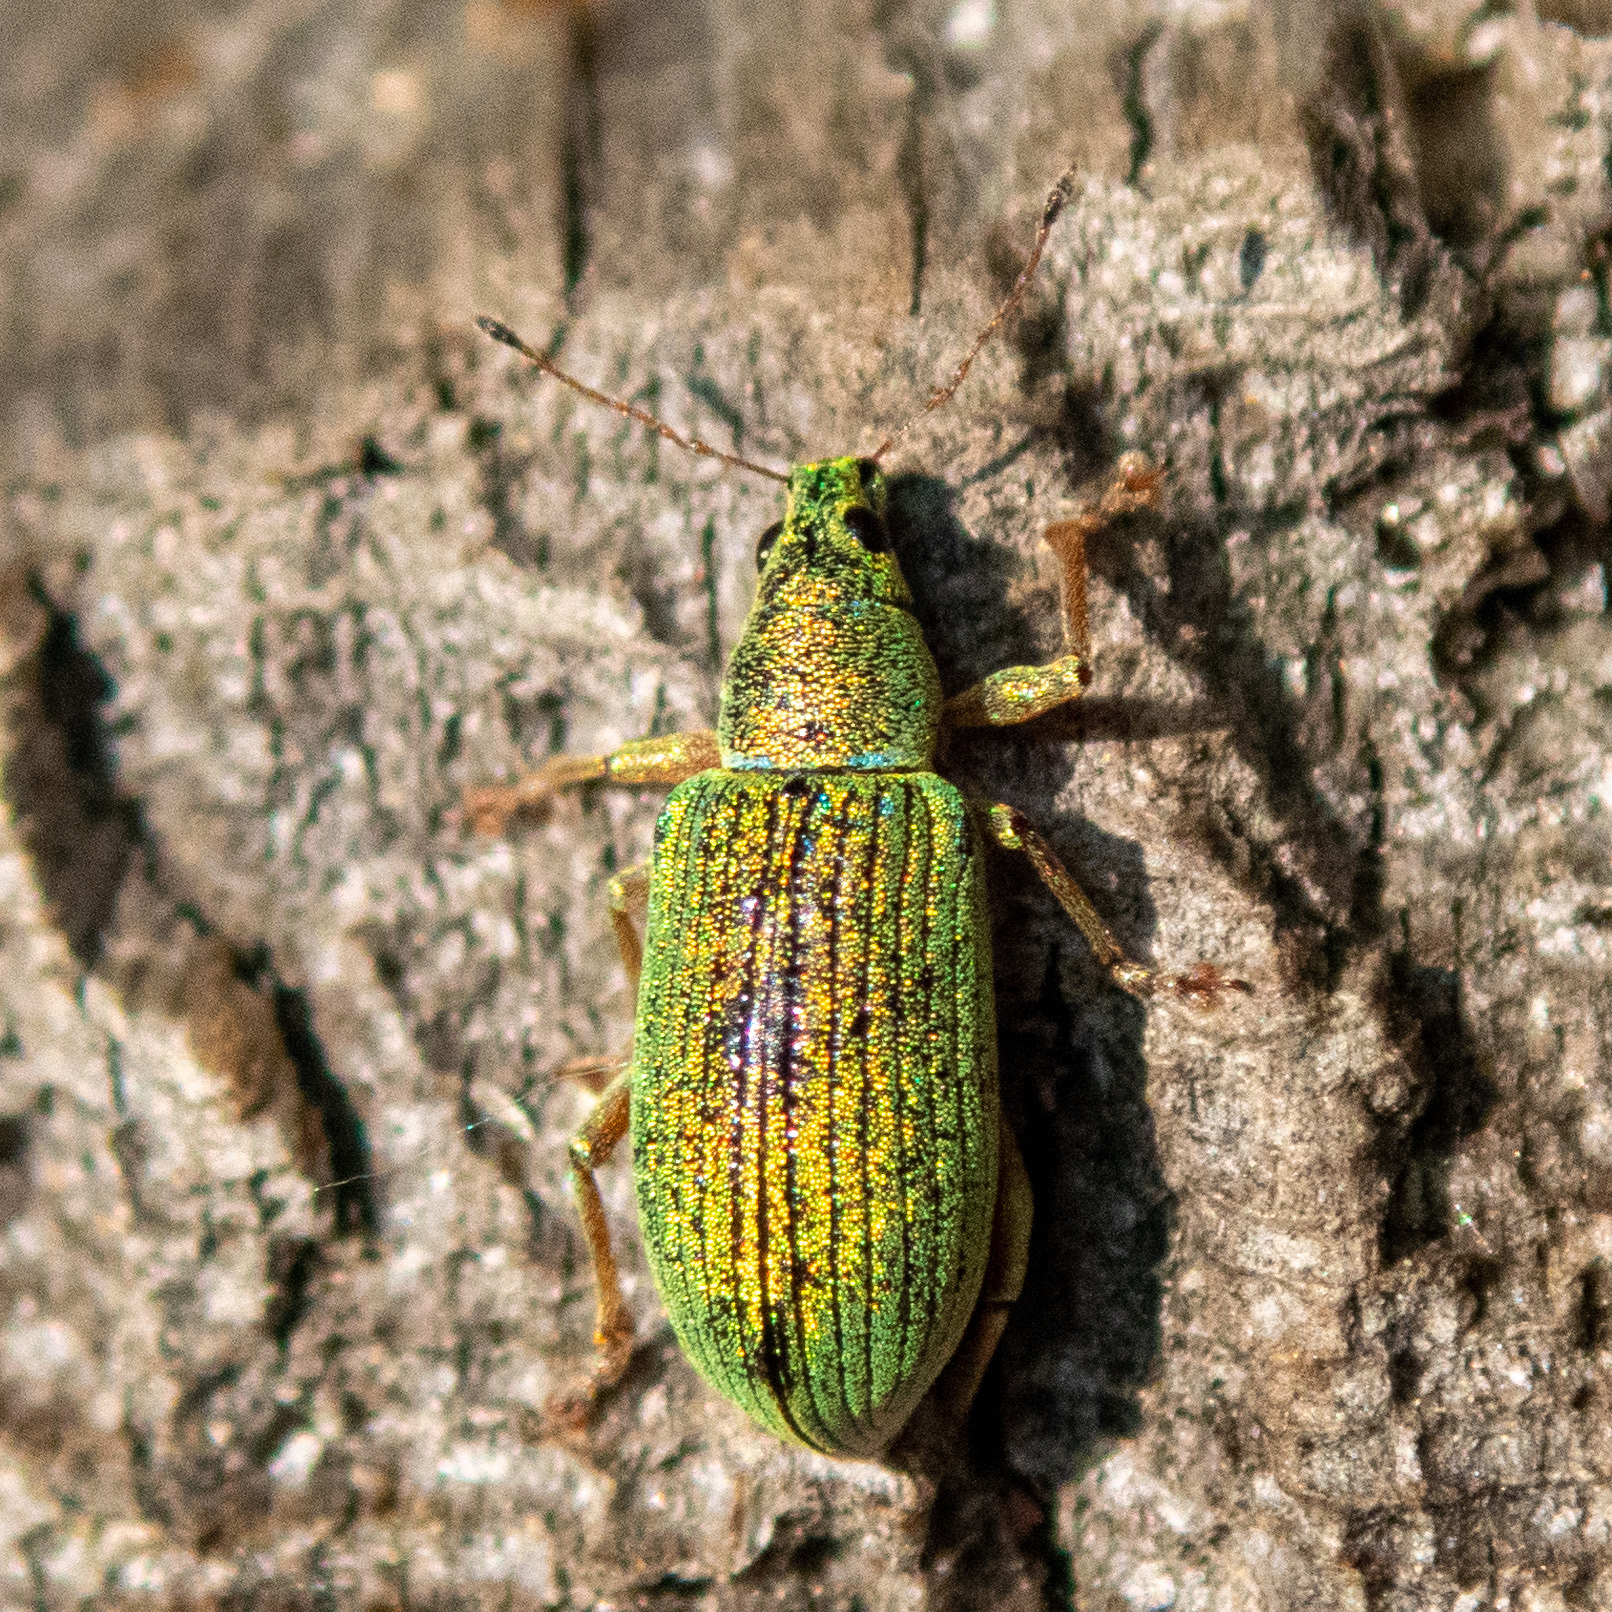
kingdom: Animalia
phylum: Arthropoda
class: Insecta
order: Coleoptera
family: Curculionidae
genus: Polydrusus
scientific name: Polydrusus formosus
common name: Weevil
